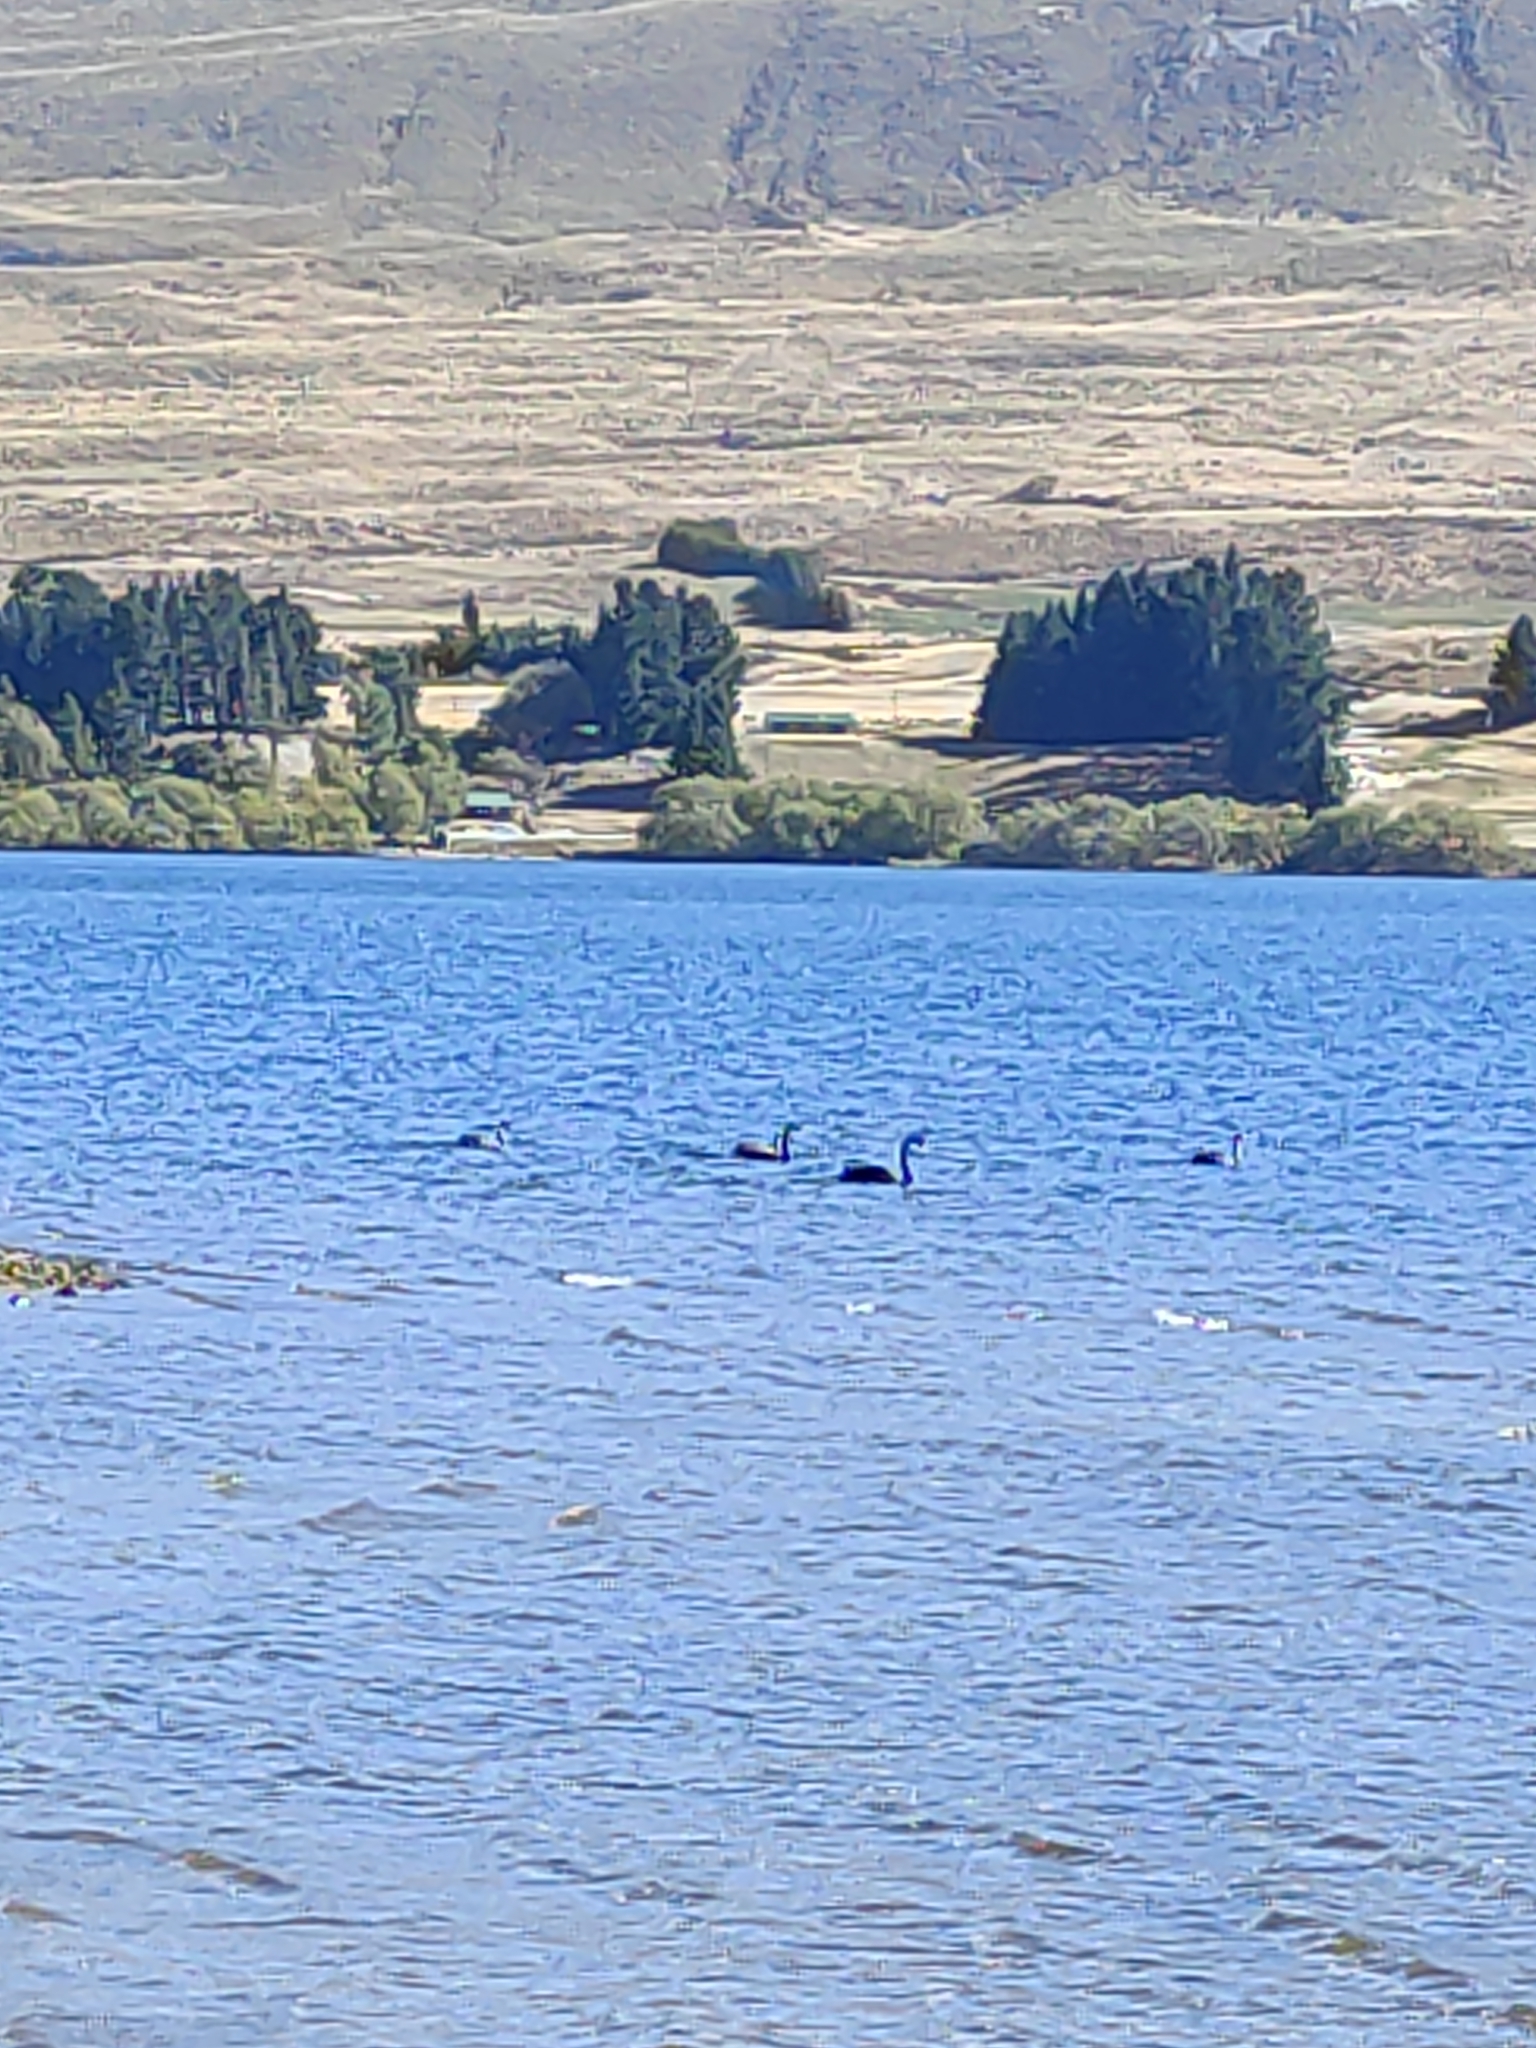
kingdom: Animalia
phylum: Chordata
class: Aves
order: Anseriformes
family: Anatidae
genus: Cygnus
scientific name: Cygnus atratus
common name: Black swan
